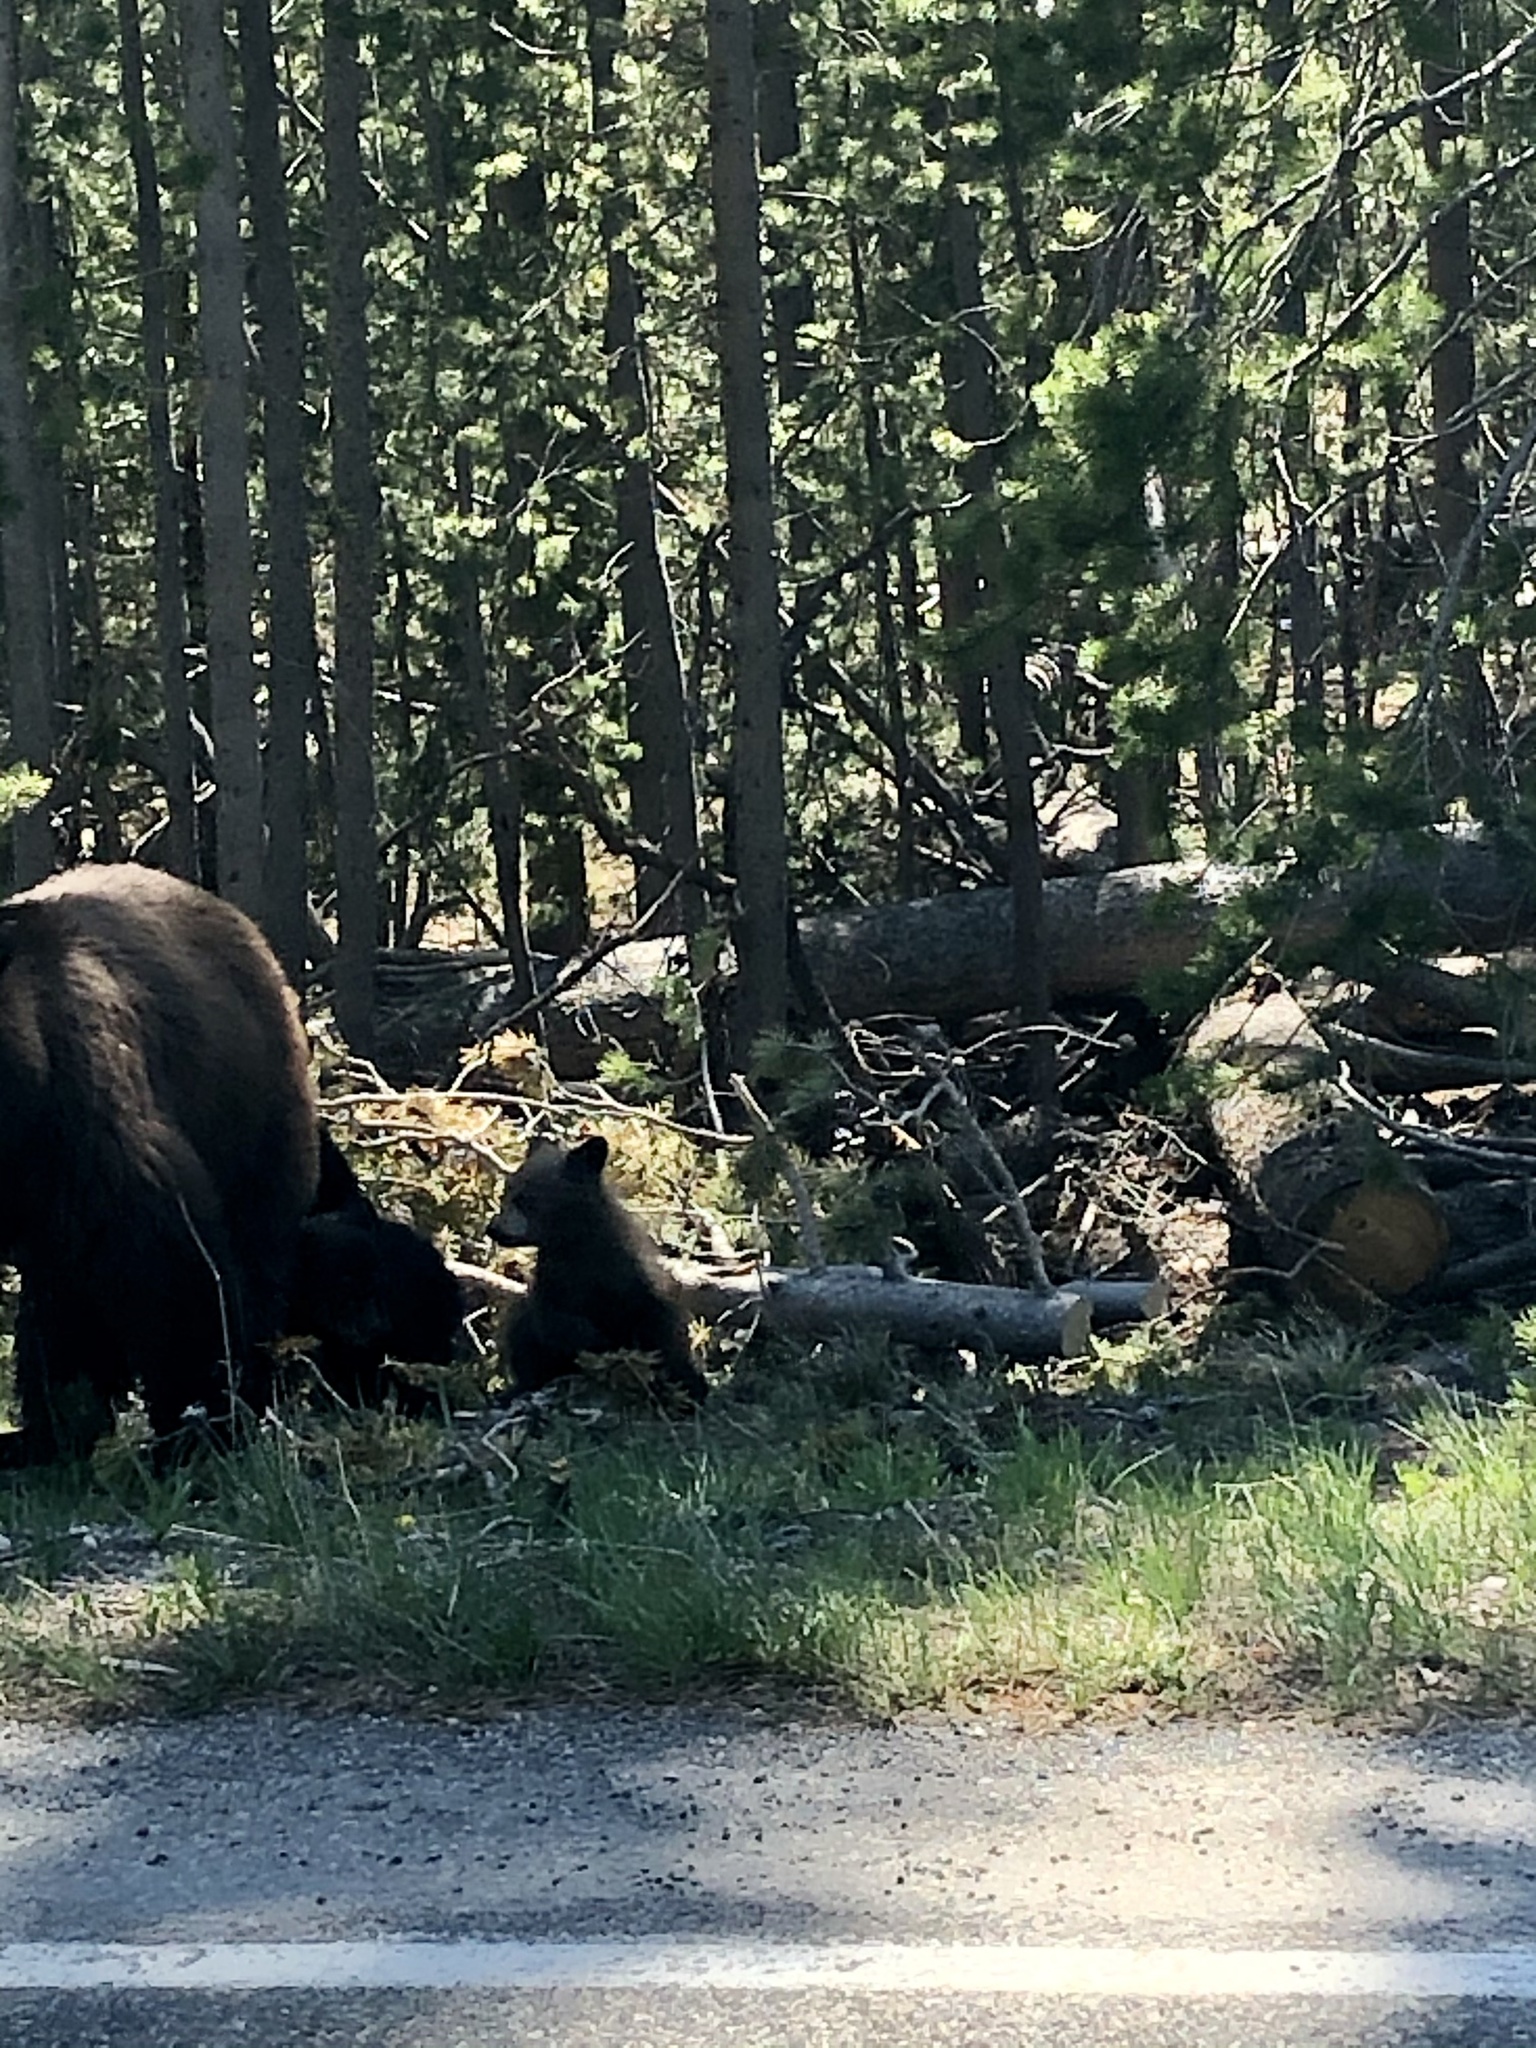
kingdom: Animalia
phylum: Chordata
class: Mammalia
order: Carnivora
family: Ursidae
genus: Ursus
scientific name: Ursus arctos
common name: Brown bear
